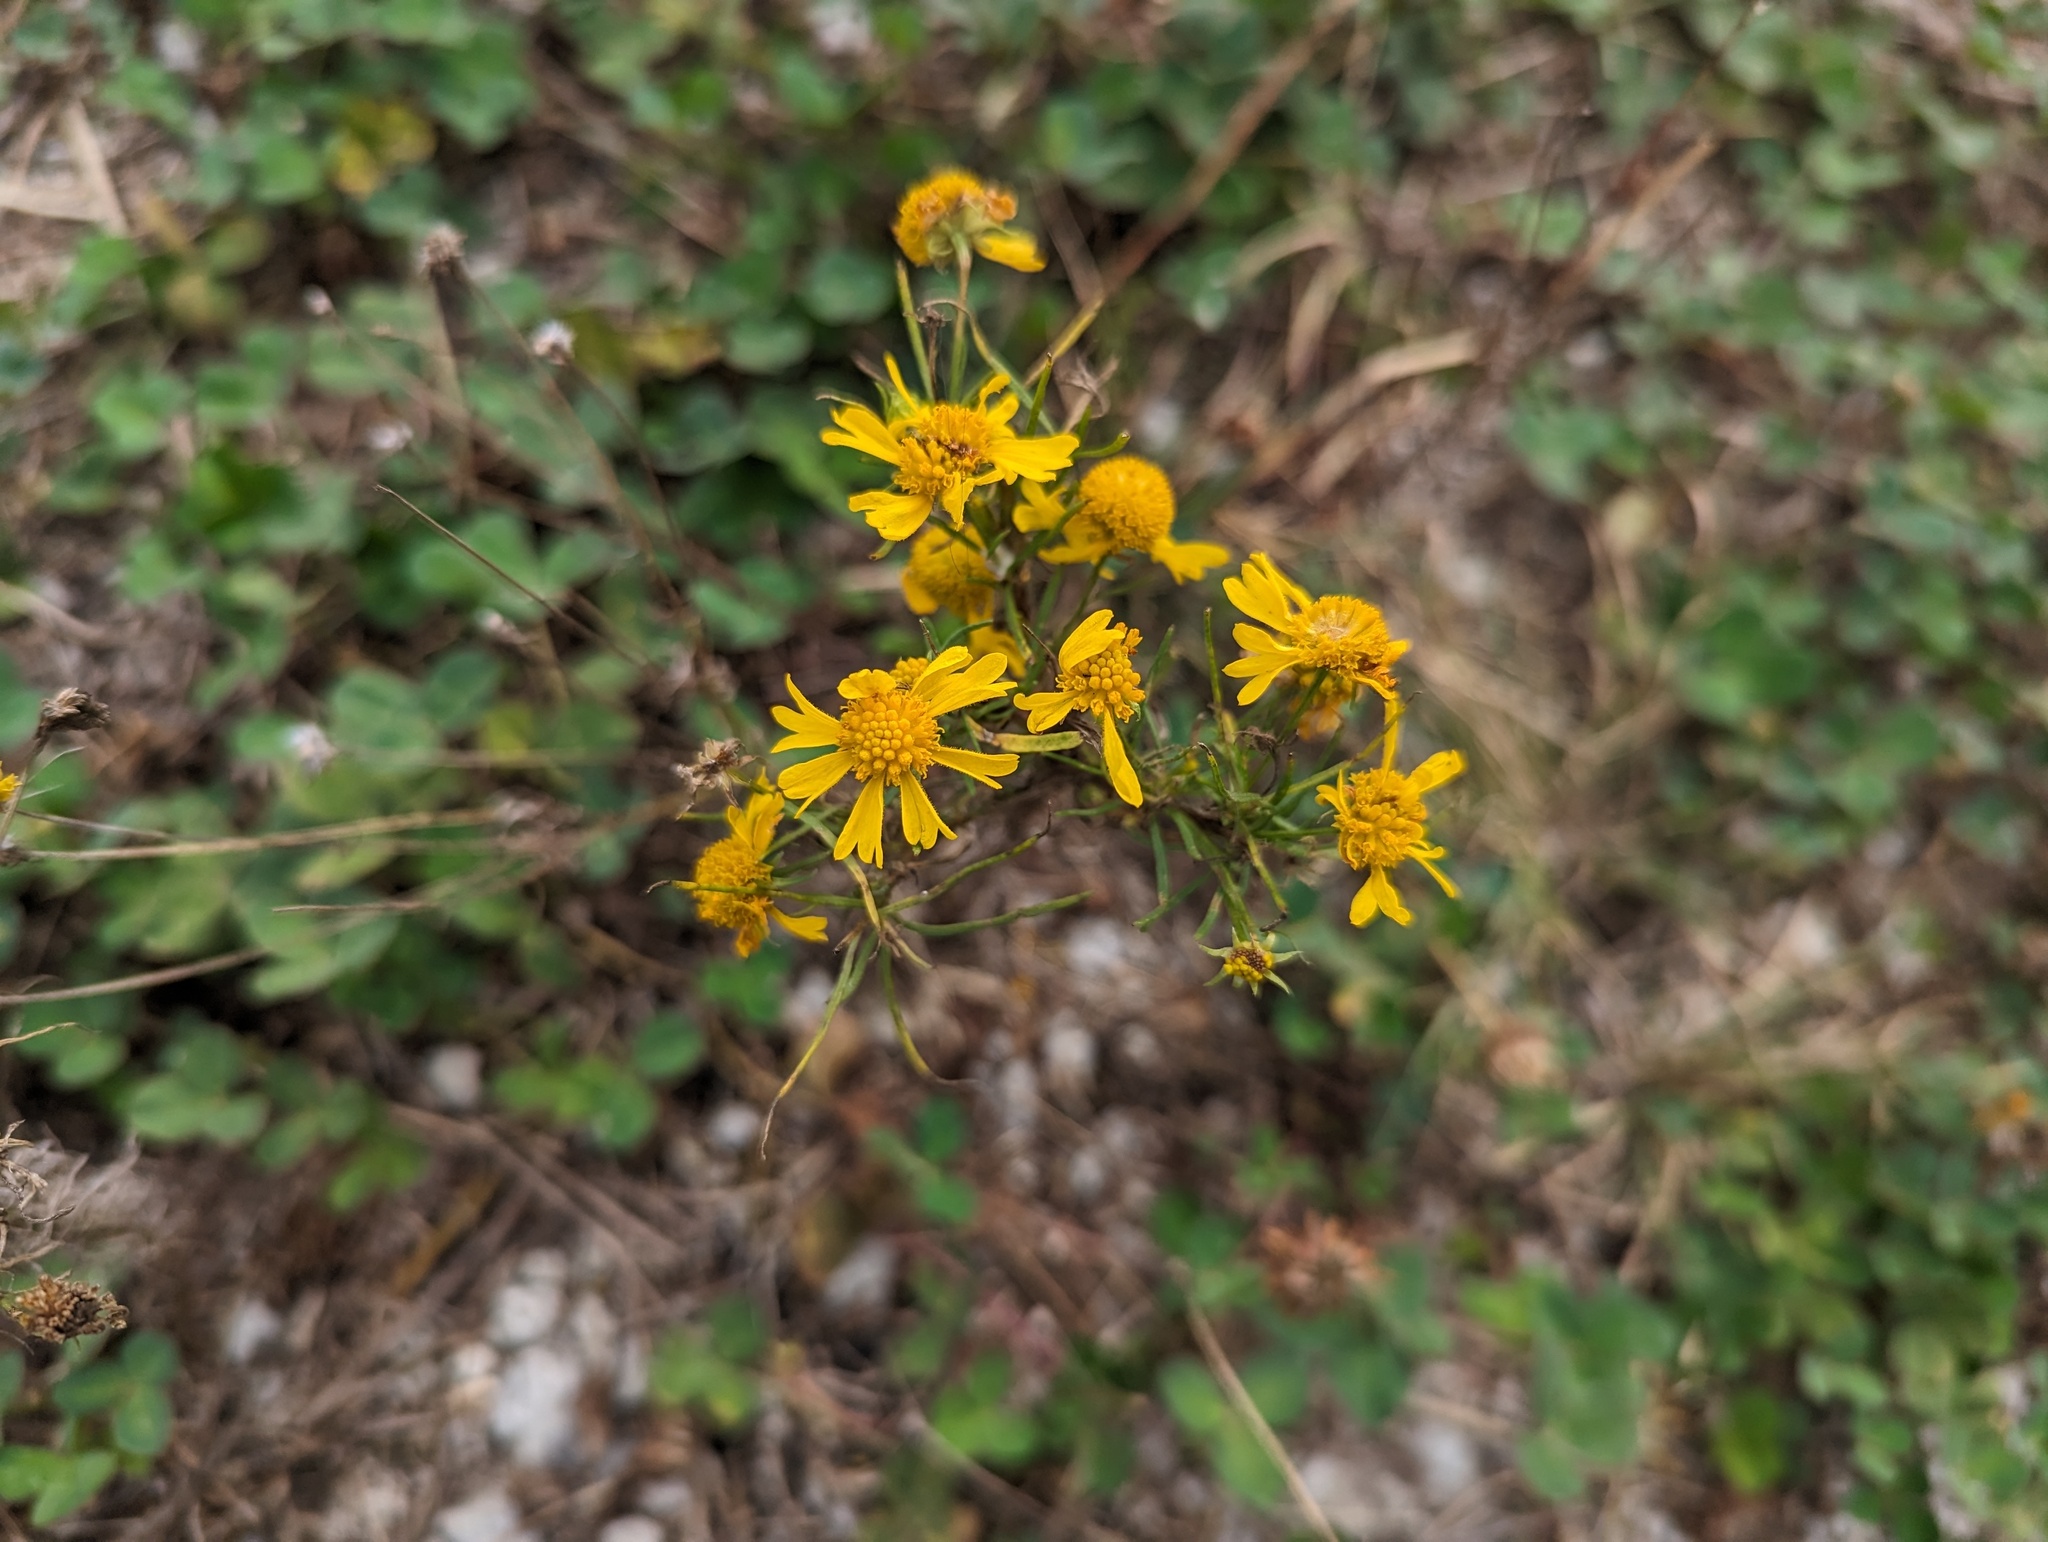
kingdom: Plantae
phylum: Tracheophyta
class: Magnoliopsida
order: Asterales
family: Asteraceae
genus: Helenium
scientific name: Helenium amarum
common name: Bitter sneezeweed
